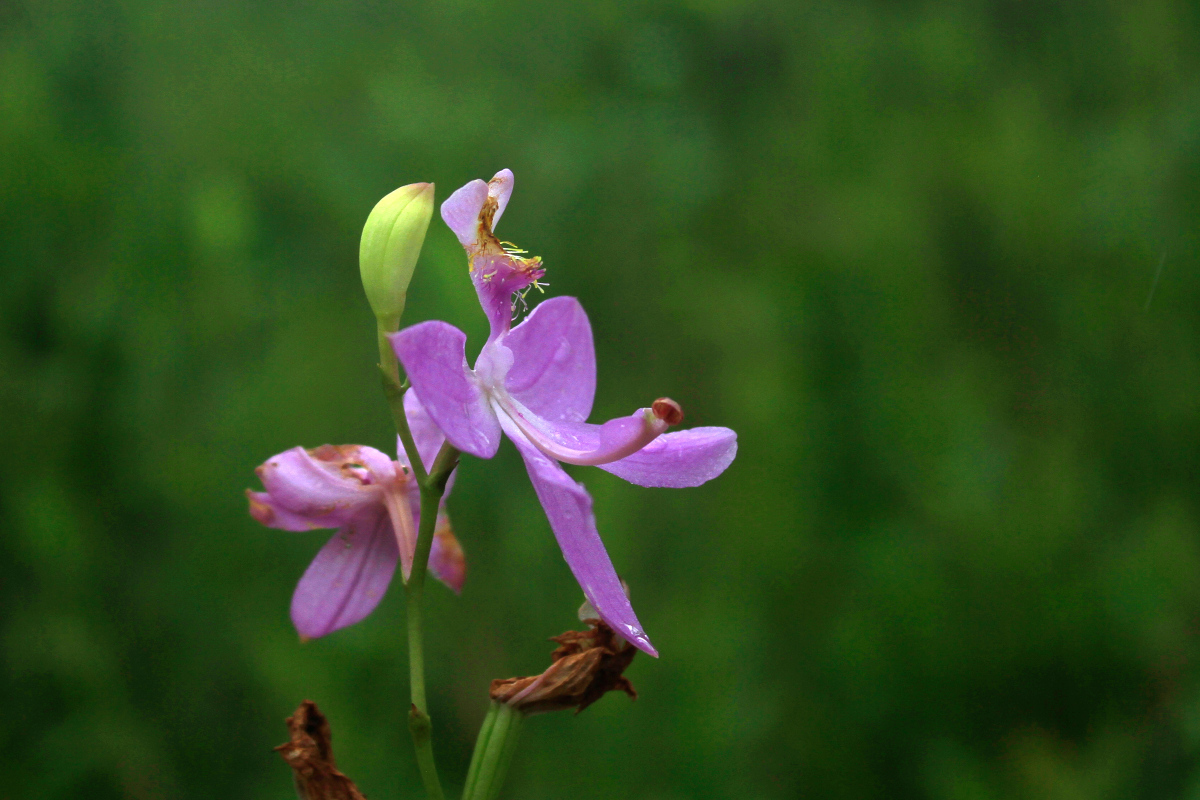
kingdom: Plantae
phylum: Tracheophyta
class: Liliopsida
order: Asparagales
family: Orchidaceae
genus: Calopogon
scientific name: Calopogon tuberosus
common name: Grass-pink
